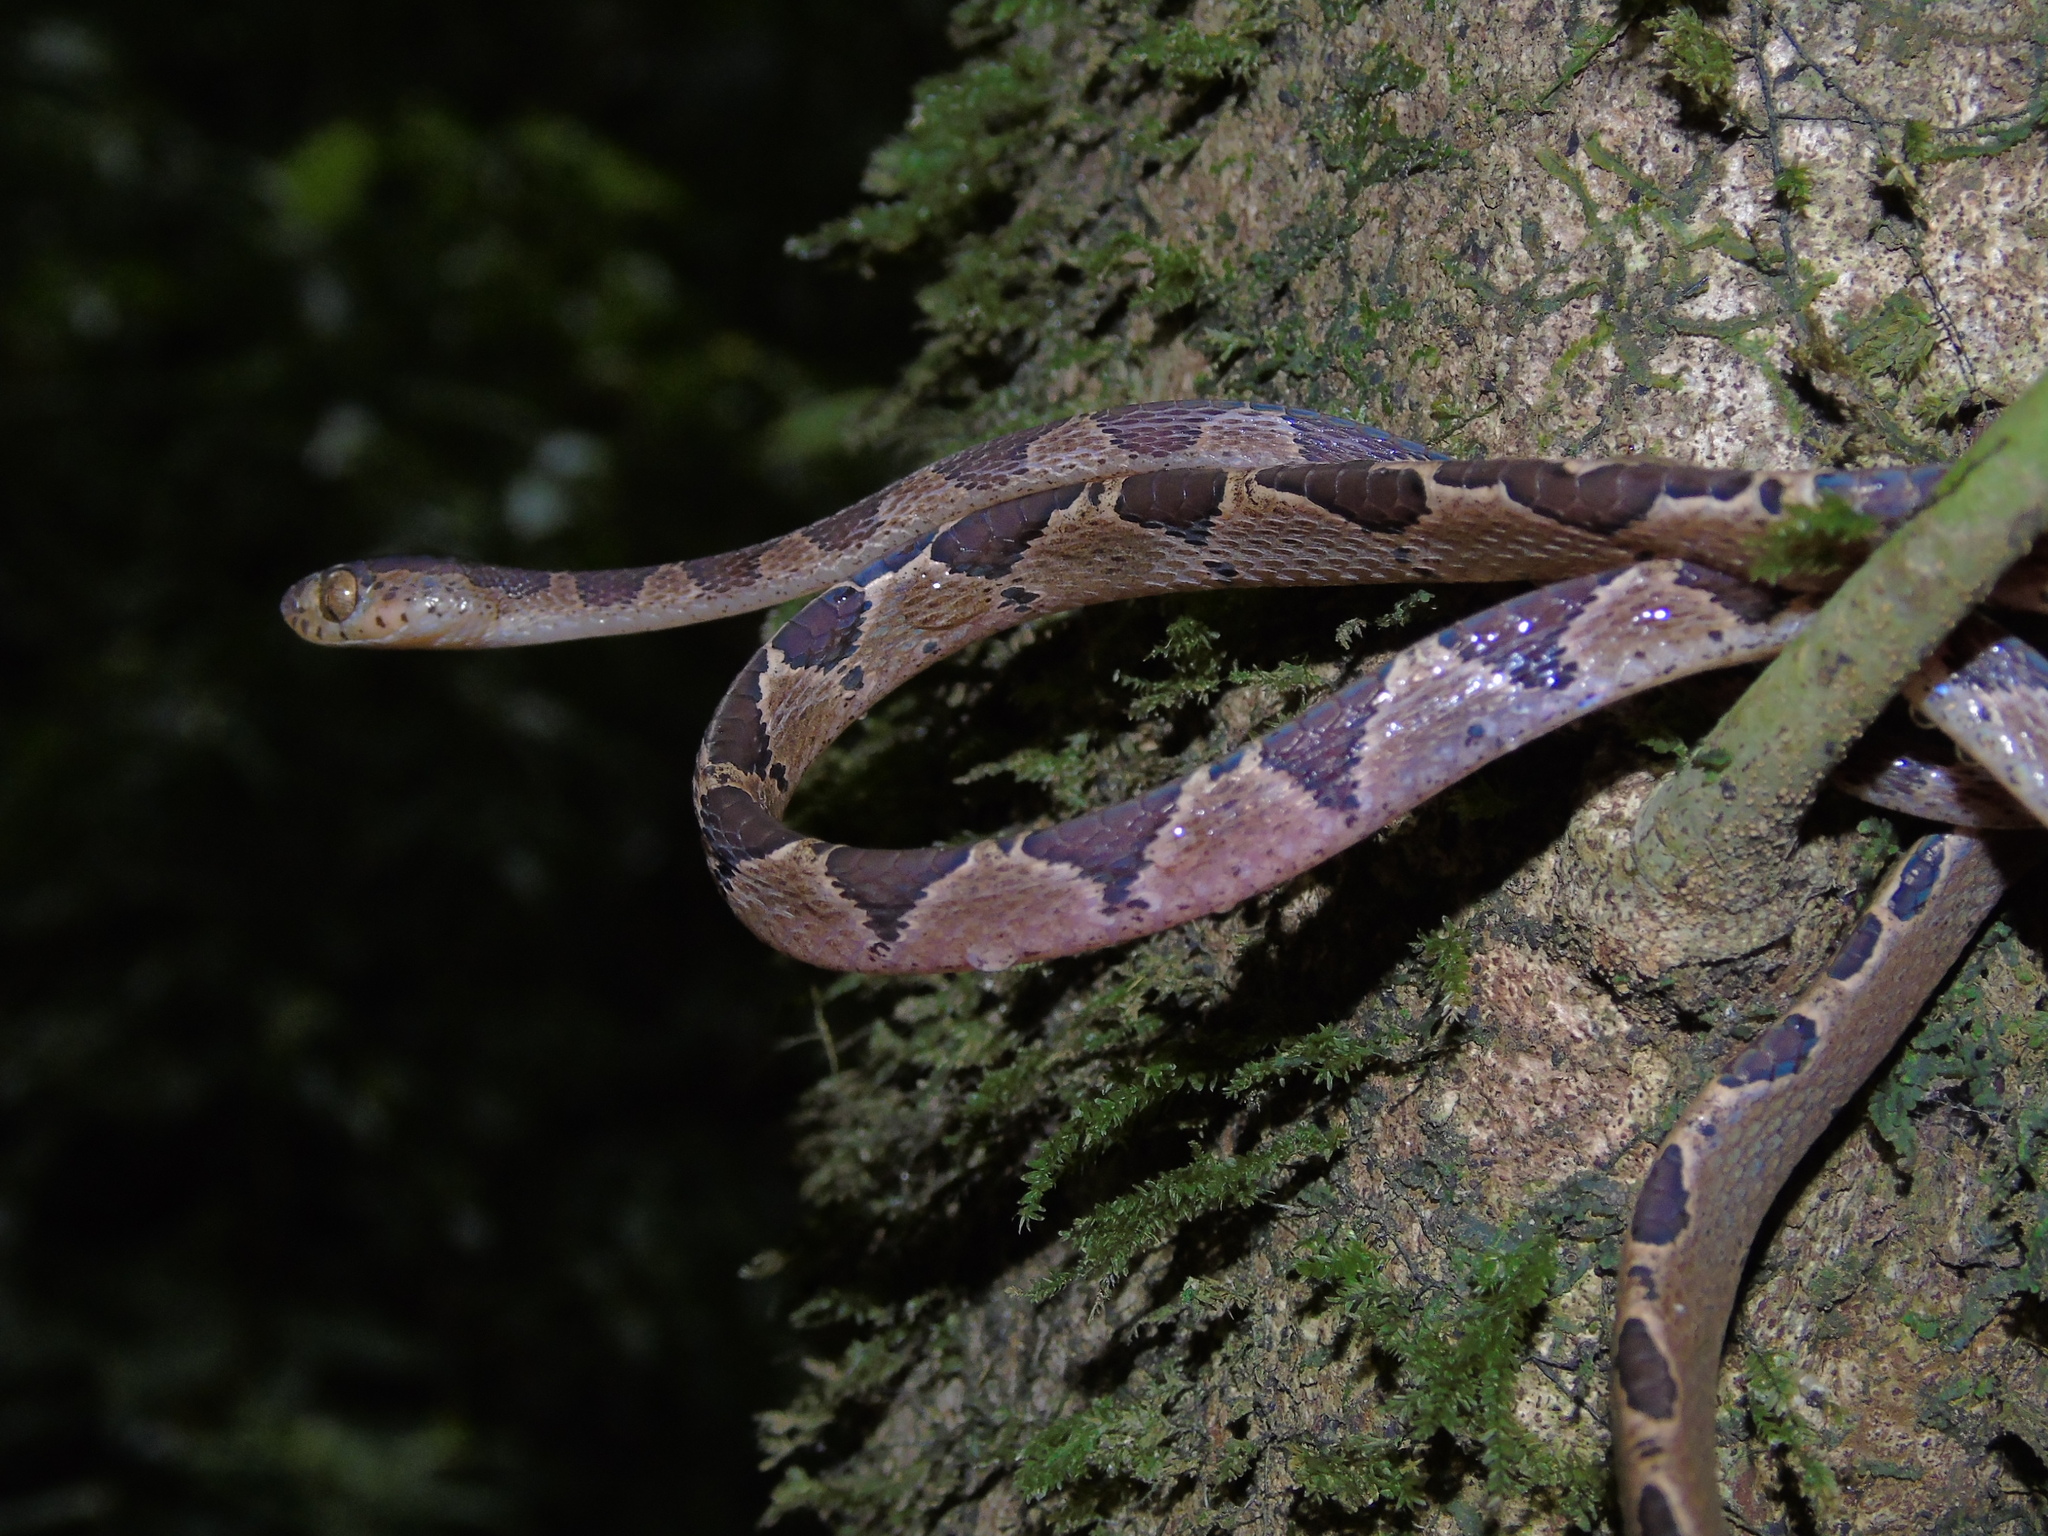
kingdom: Animalia
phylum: Chordata
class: Squamata
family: Colubridae
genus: Imantodes
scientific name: Imantodes cenchoa
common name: Blunthead tree snake
